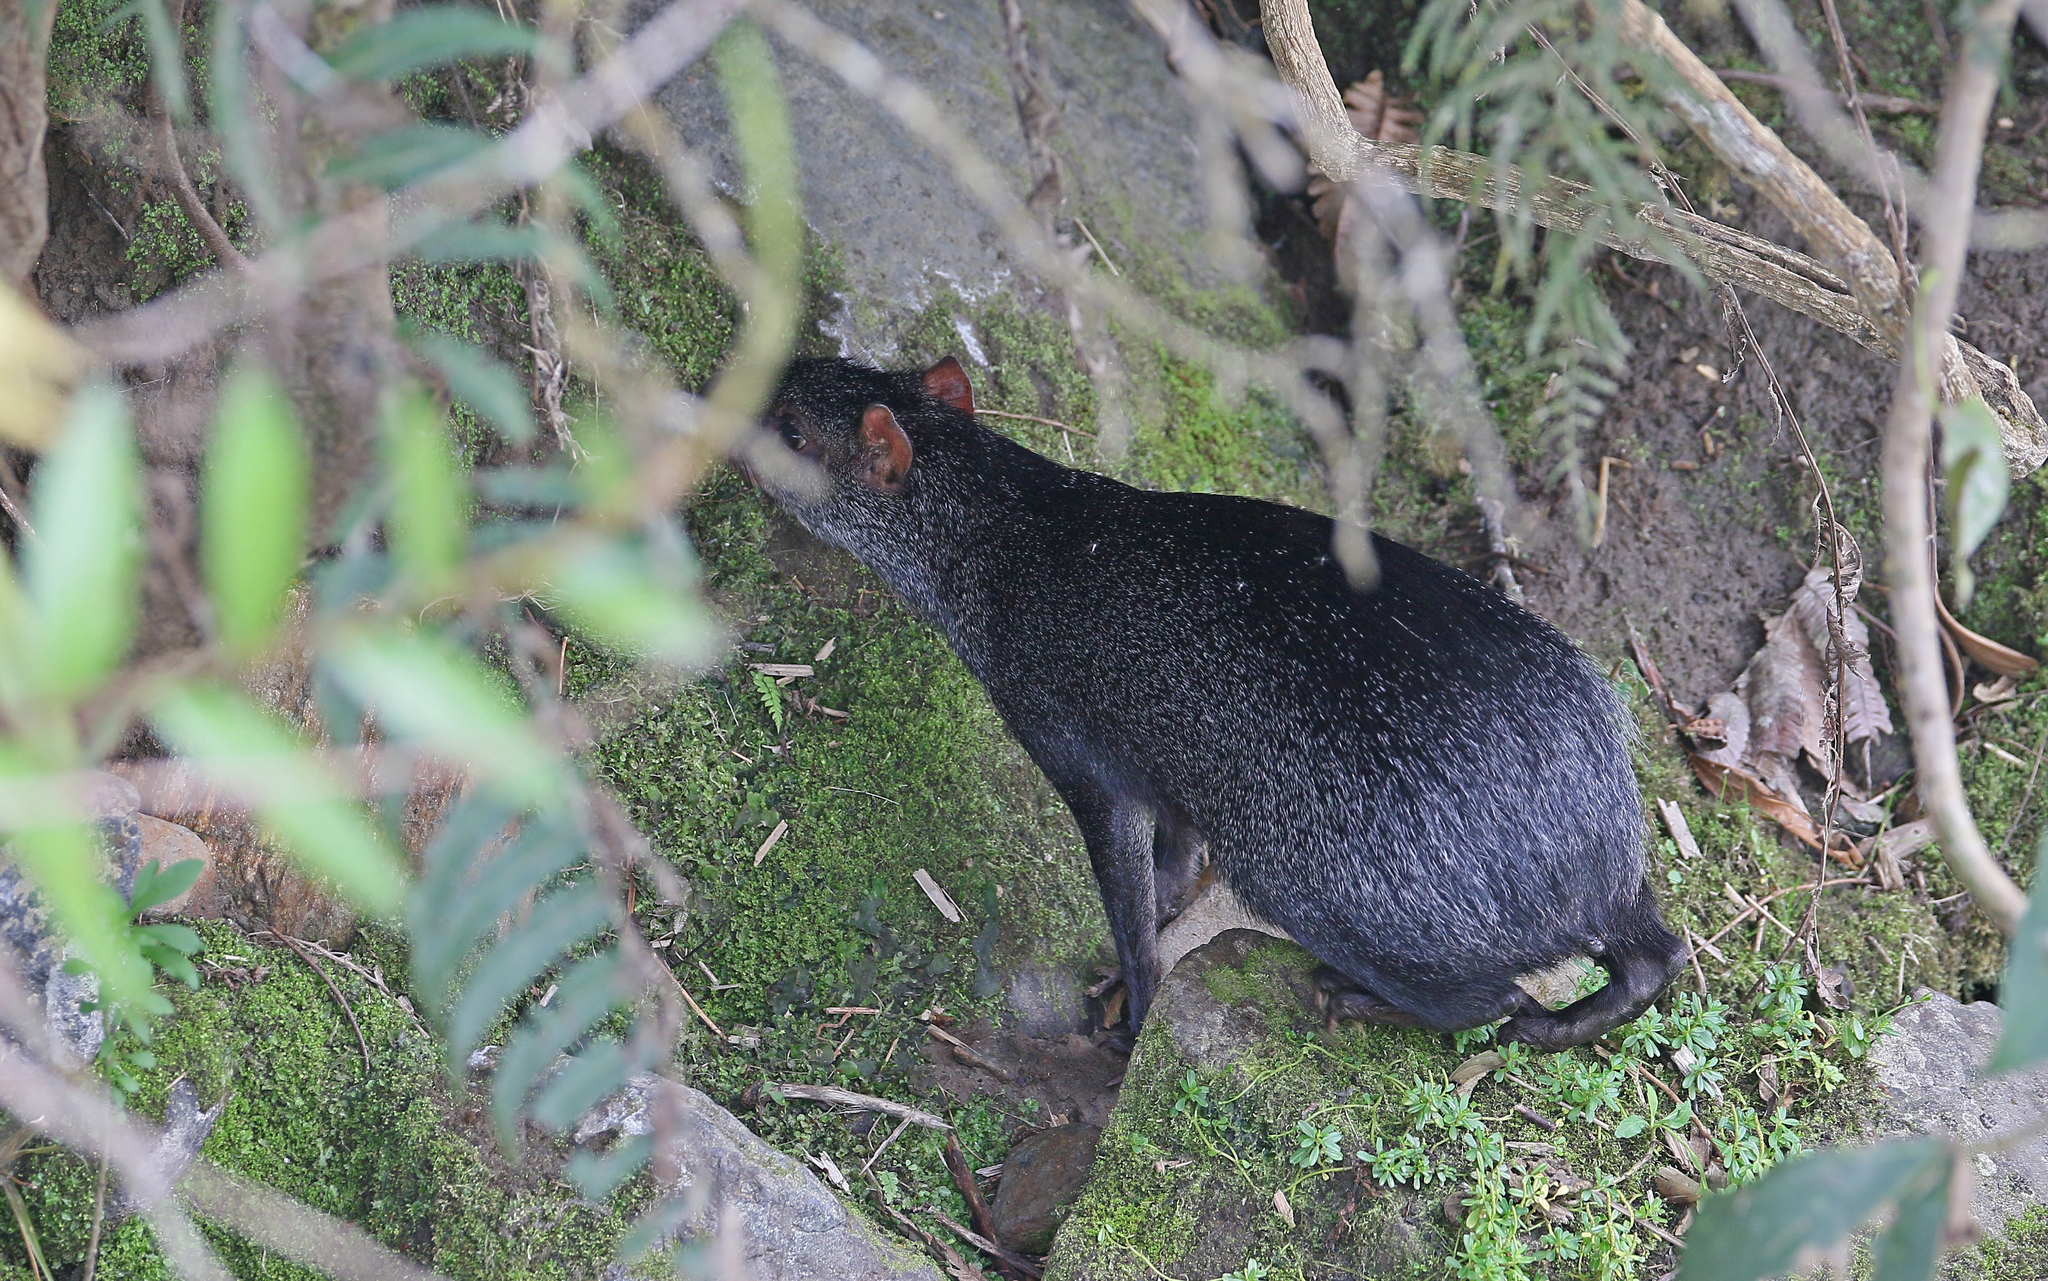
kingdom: Animalia
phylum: Chordata
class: Mammalia
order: Rodentia
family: Dasyproctidae
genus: Dasyprocta
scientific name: Dasyprocta fuliginosa
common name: Black agouti
